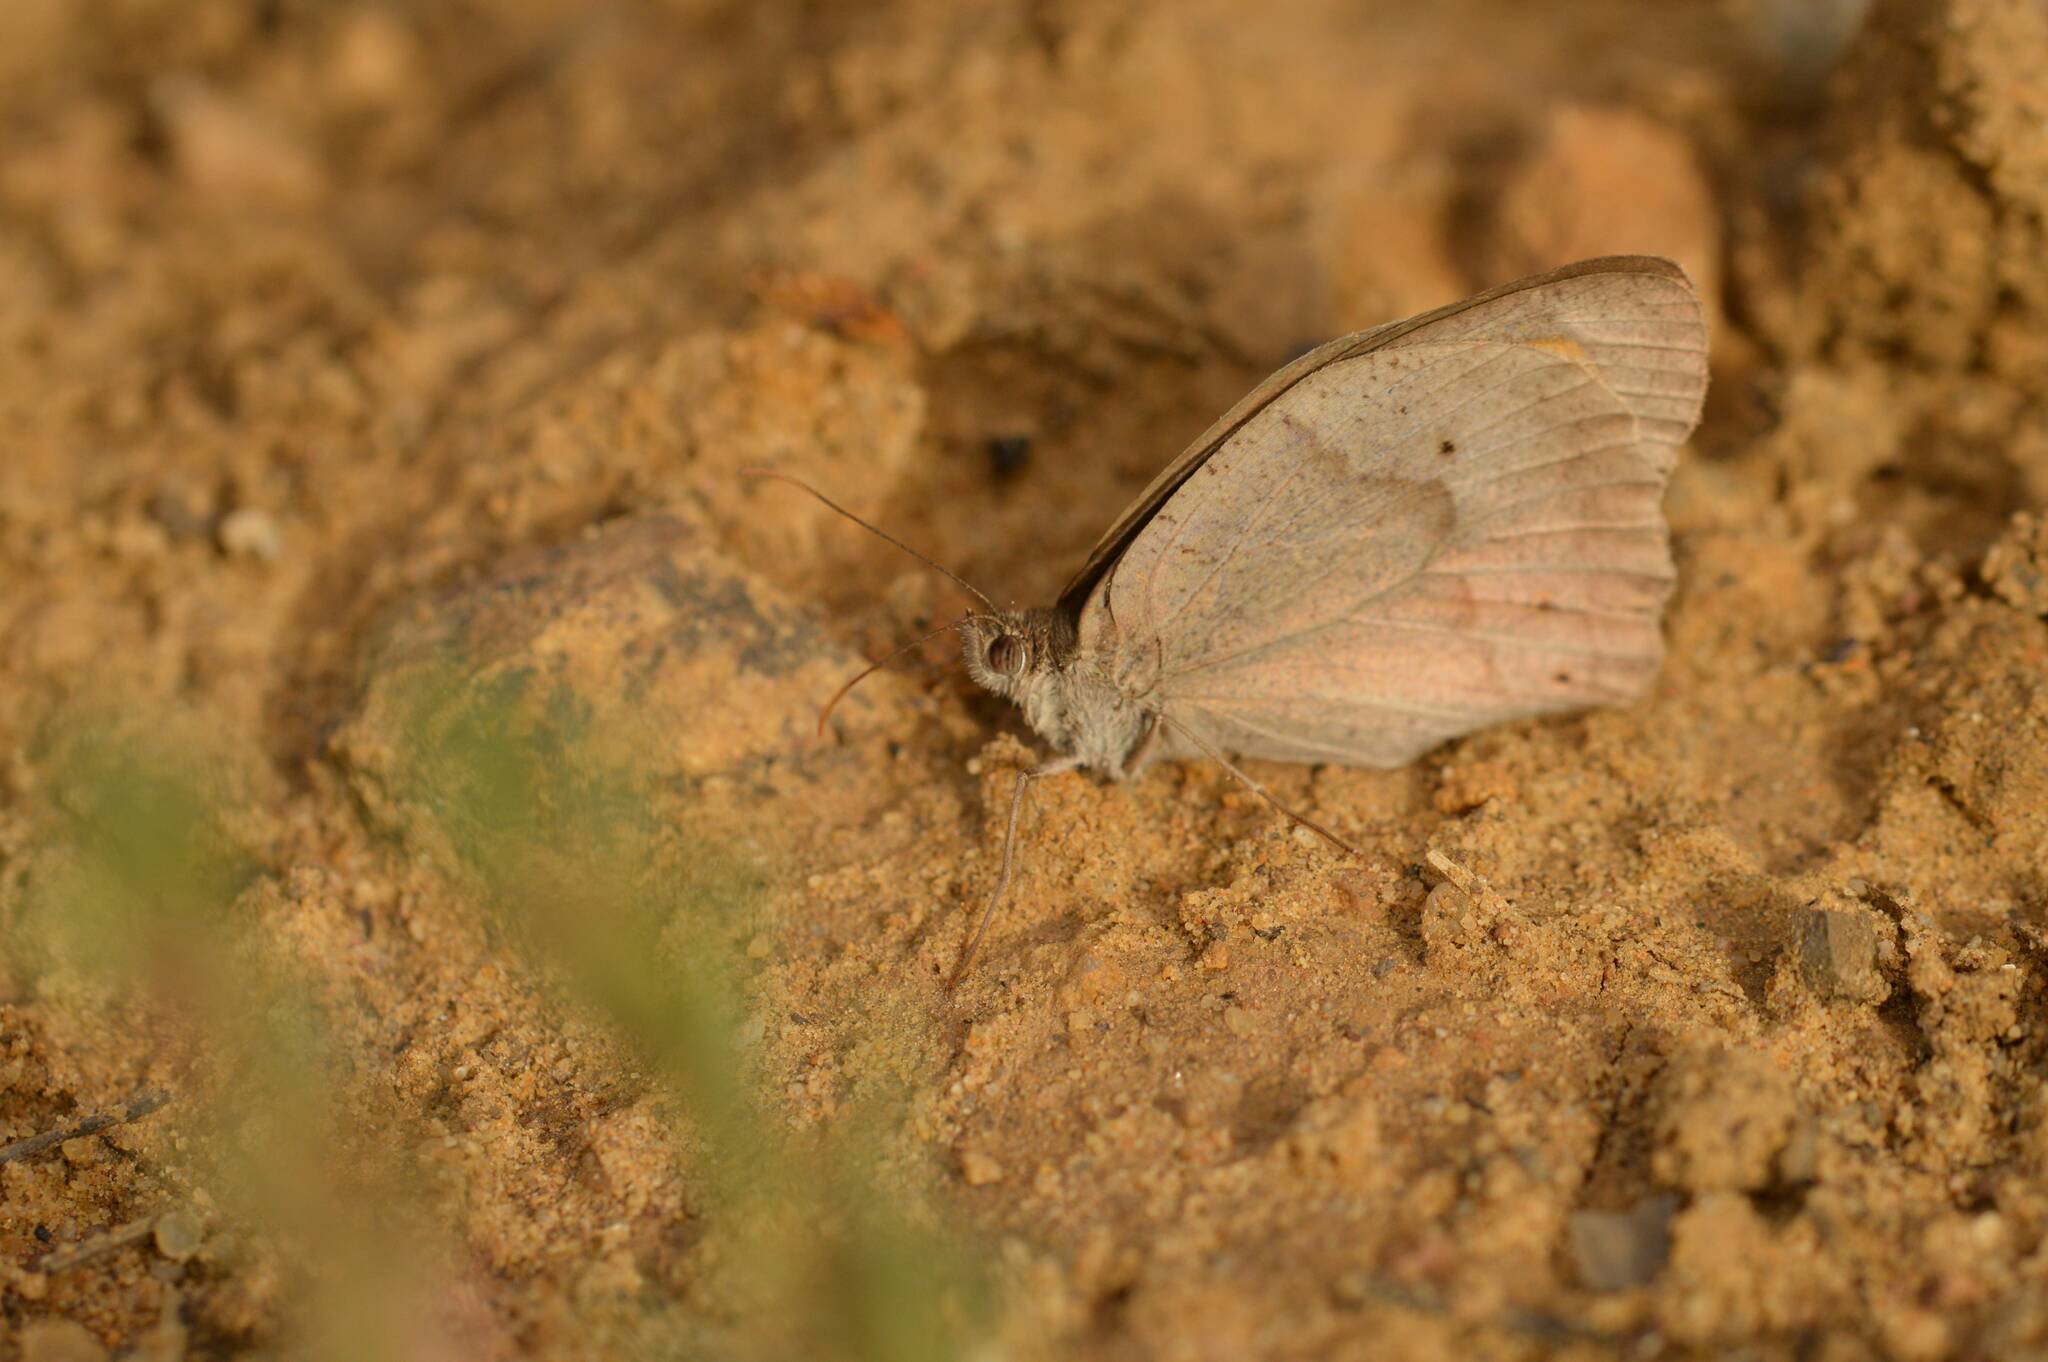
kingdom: Animalia
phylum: Arthropoda
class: Insecta
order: Lepidoptera
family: Nymphalidae
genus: Maniola
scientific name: Maniola jurtina
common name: Meadow brown
